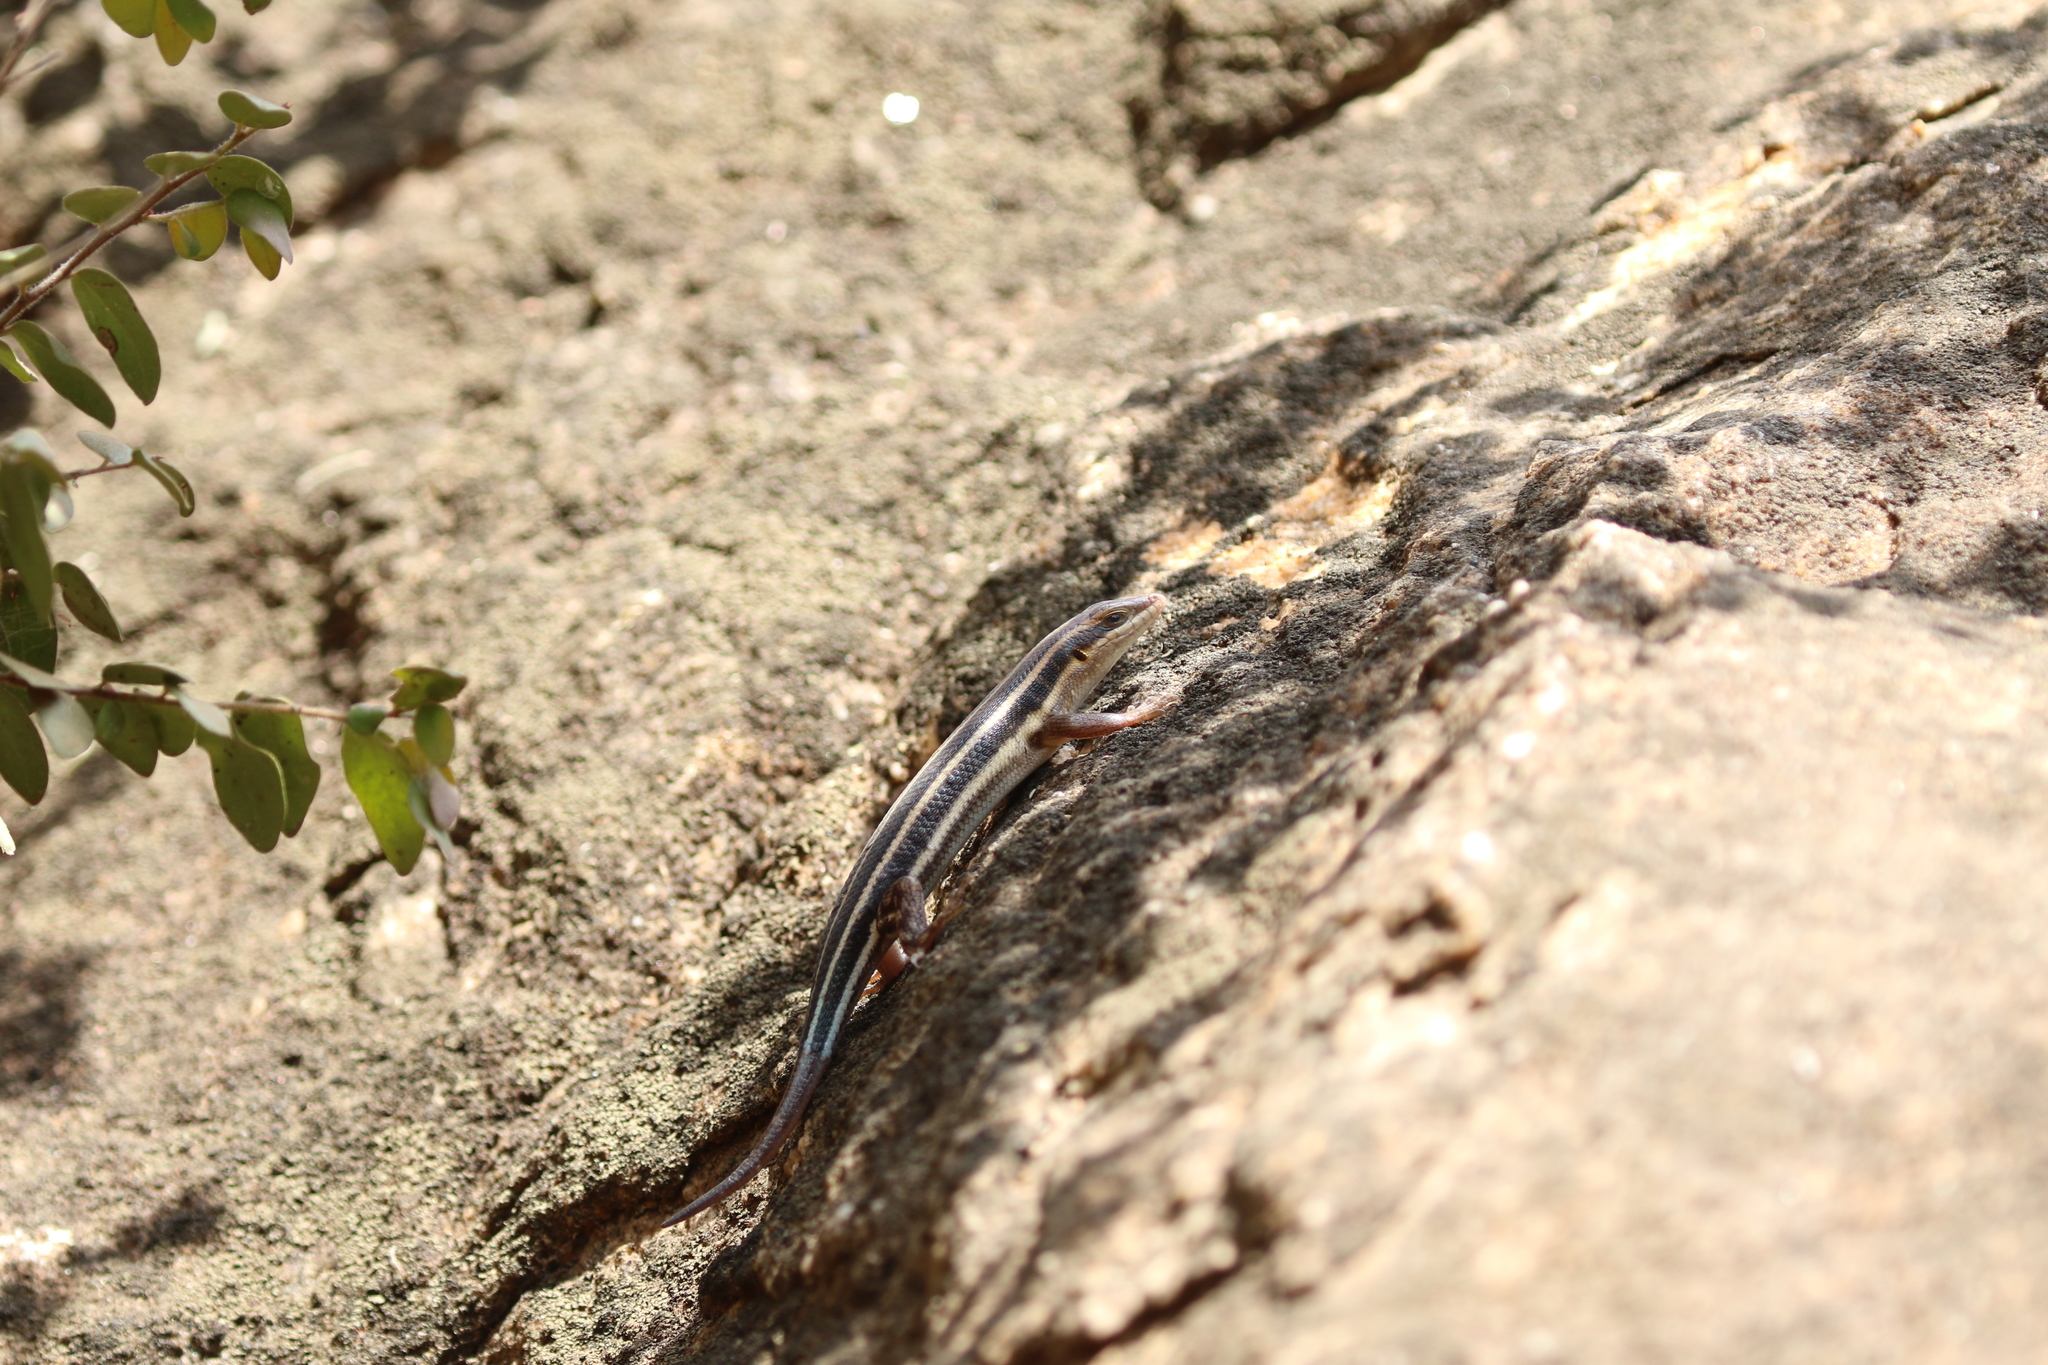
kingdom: Animalia
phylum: Chordata
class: Squamata
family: Scincidae
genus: Trachylepis
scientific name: Trachylepis quinquetaeniata
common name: African five-lined skink
